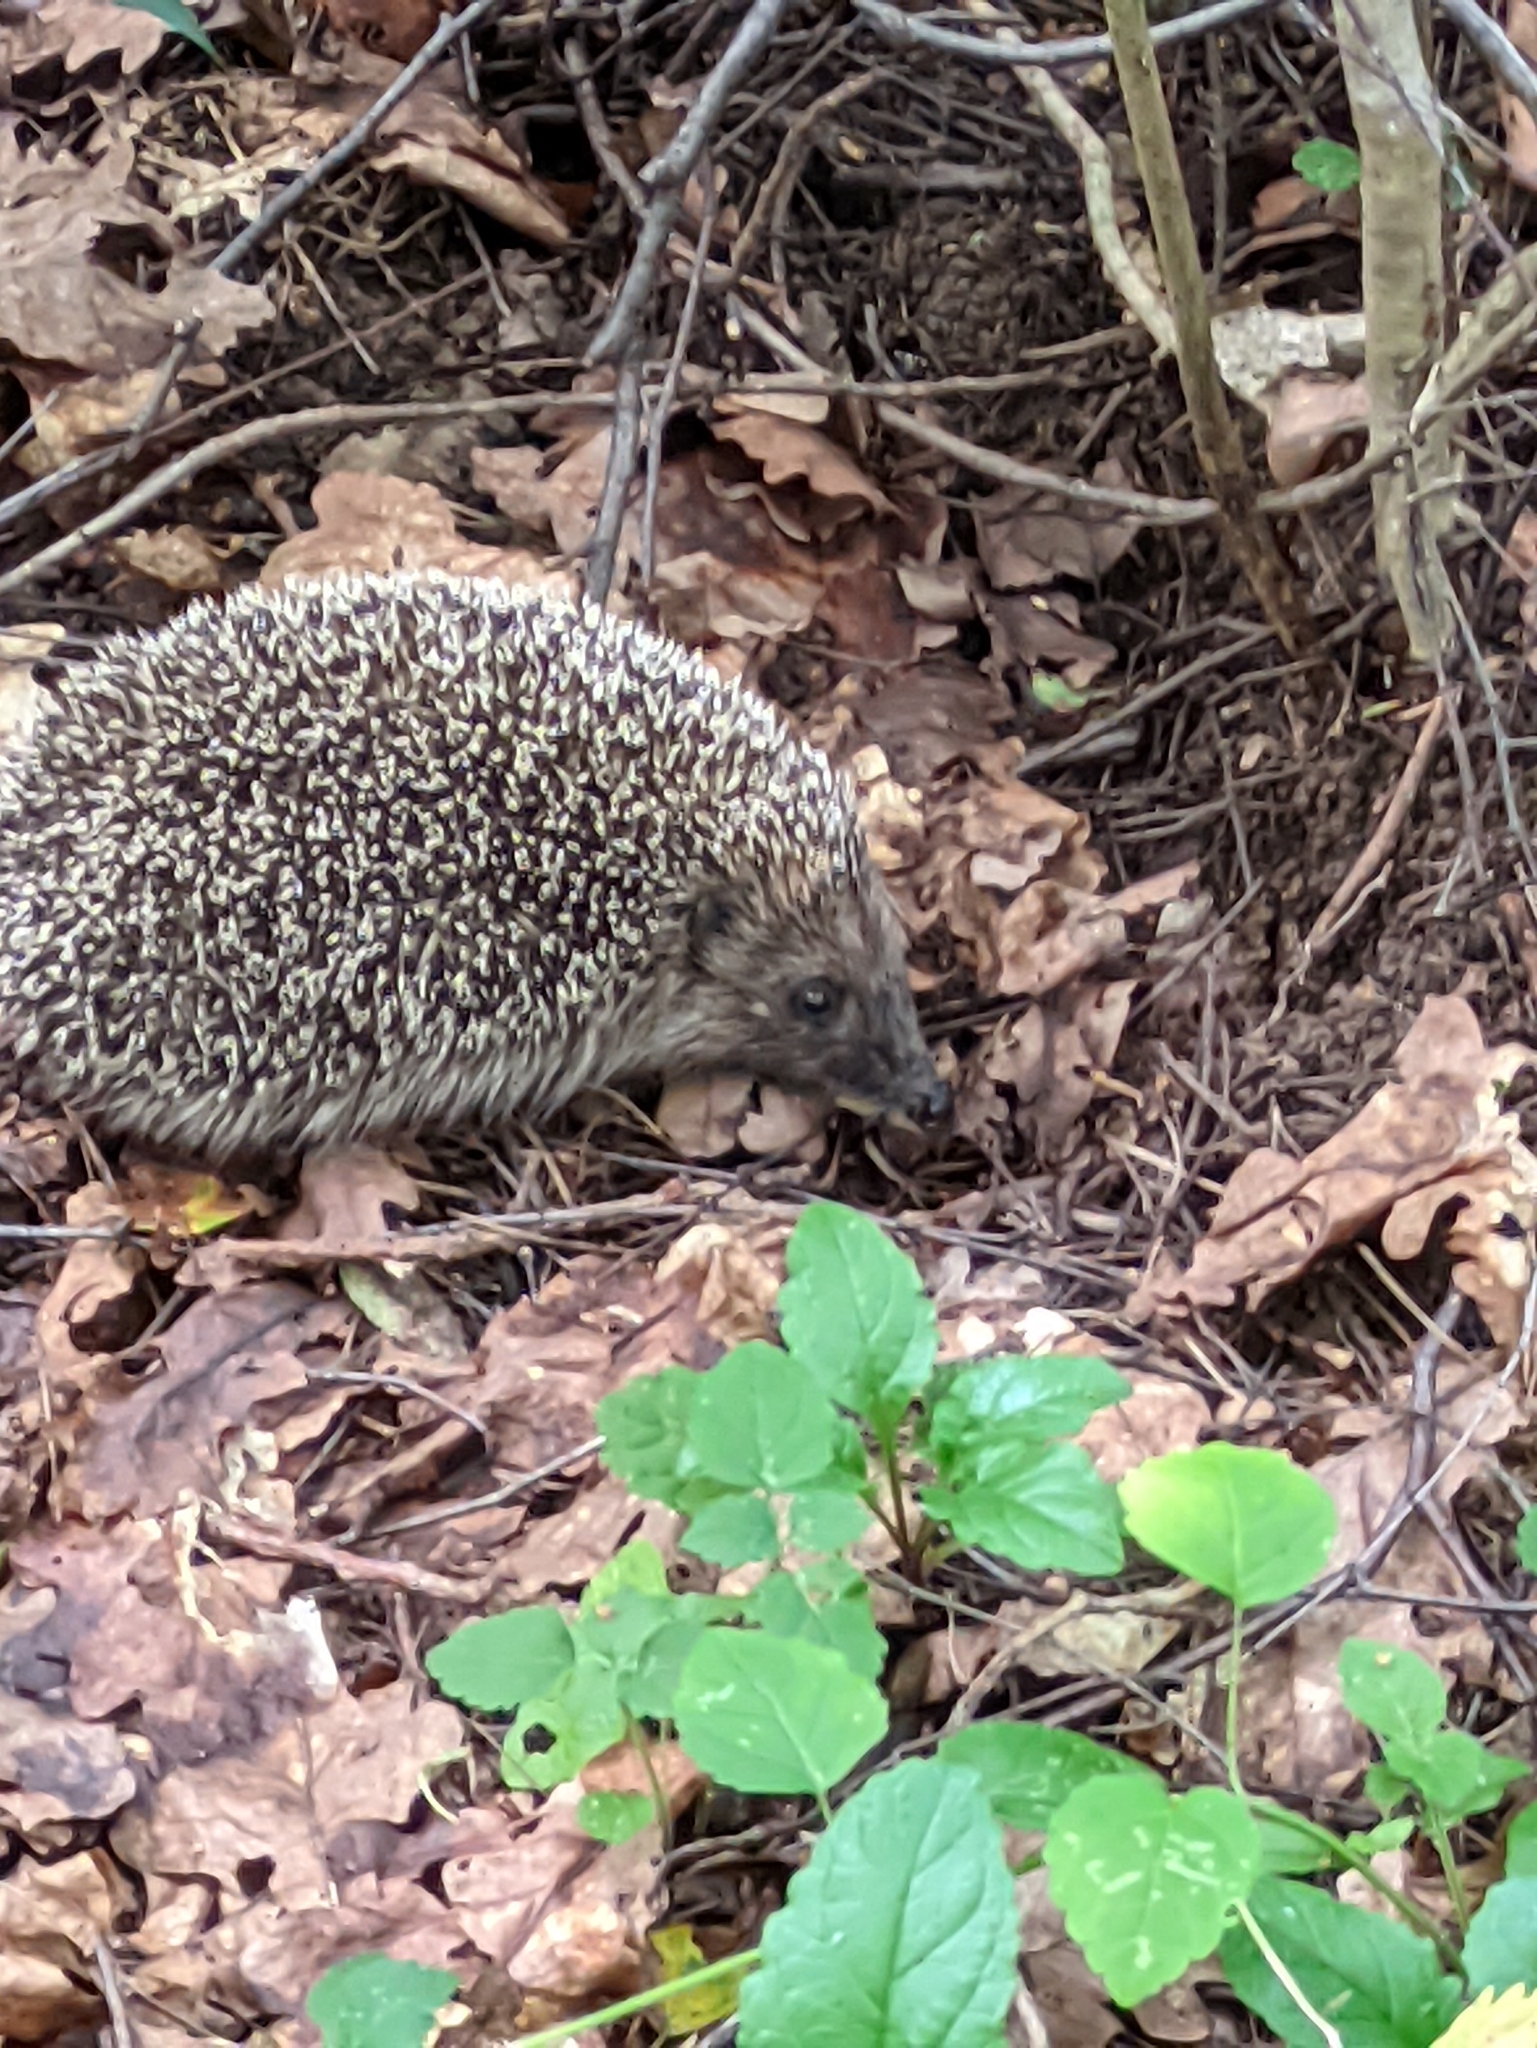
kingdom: Animalia
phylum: Chordata
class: Mammalia
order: Erinaceomorpha
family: Erinaceidae
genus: Erinaceus
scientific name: Erinaceus roumanicus
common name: Northern white-breasted hedgehog
